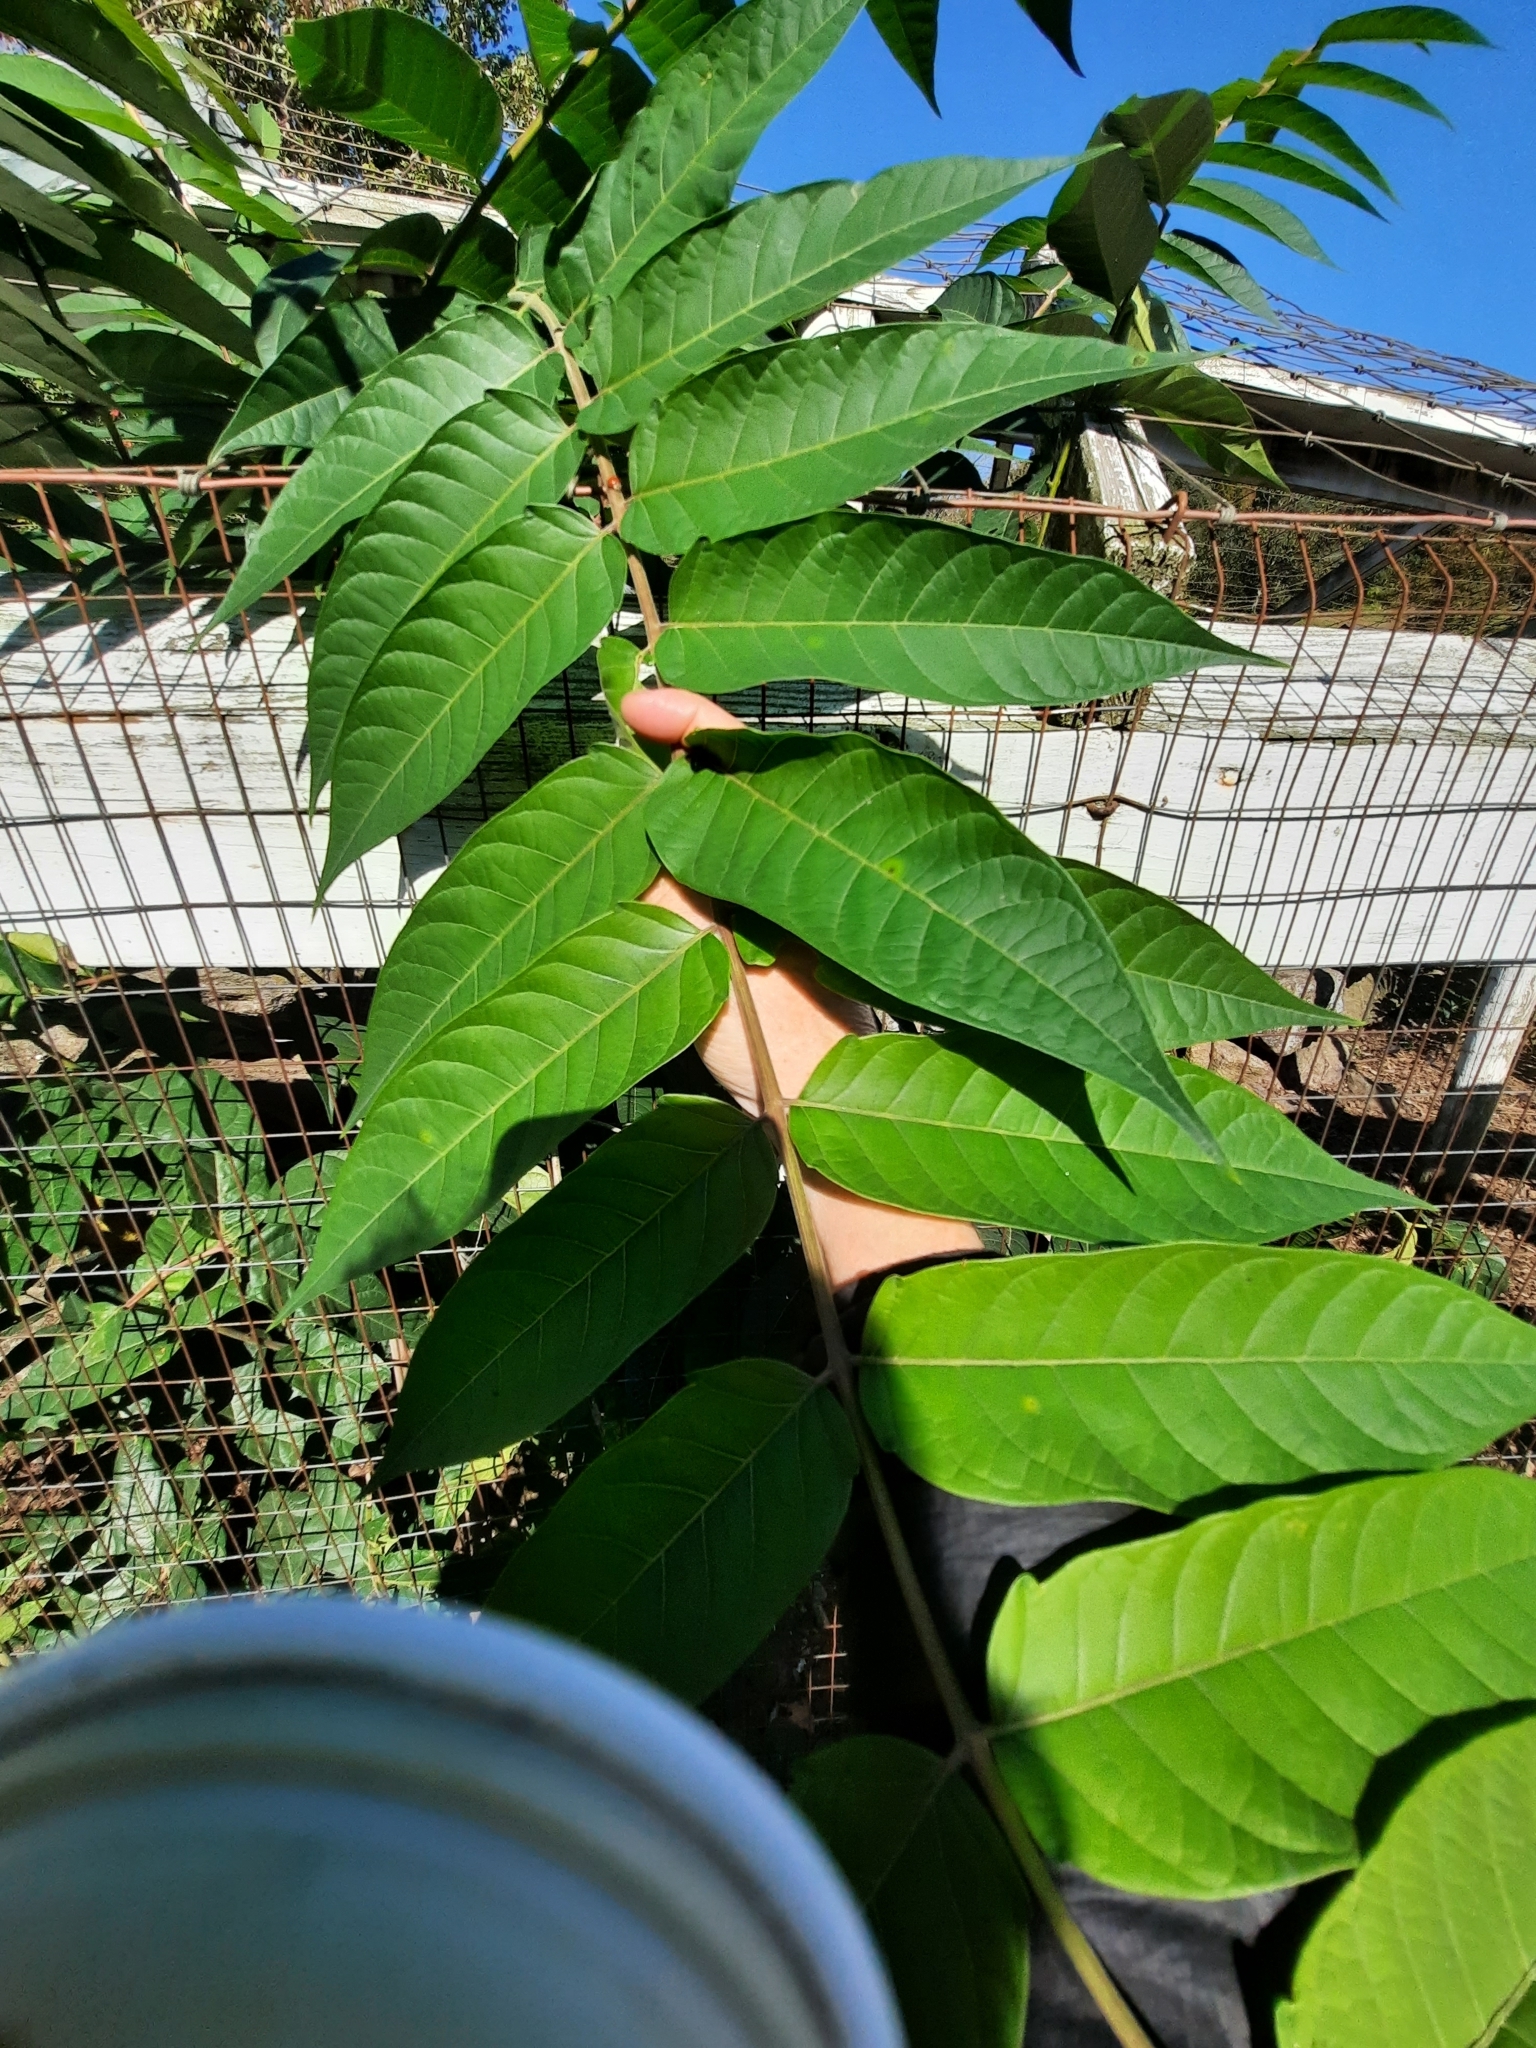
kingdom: Plantae
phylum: Tracheophyta
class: Magnoliopsida
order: Sapindales
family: Simaroubaceae
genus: Ailanthus
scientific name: Ailanthus altissima
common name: Tree-of-heaven
